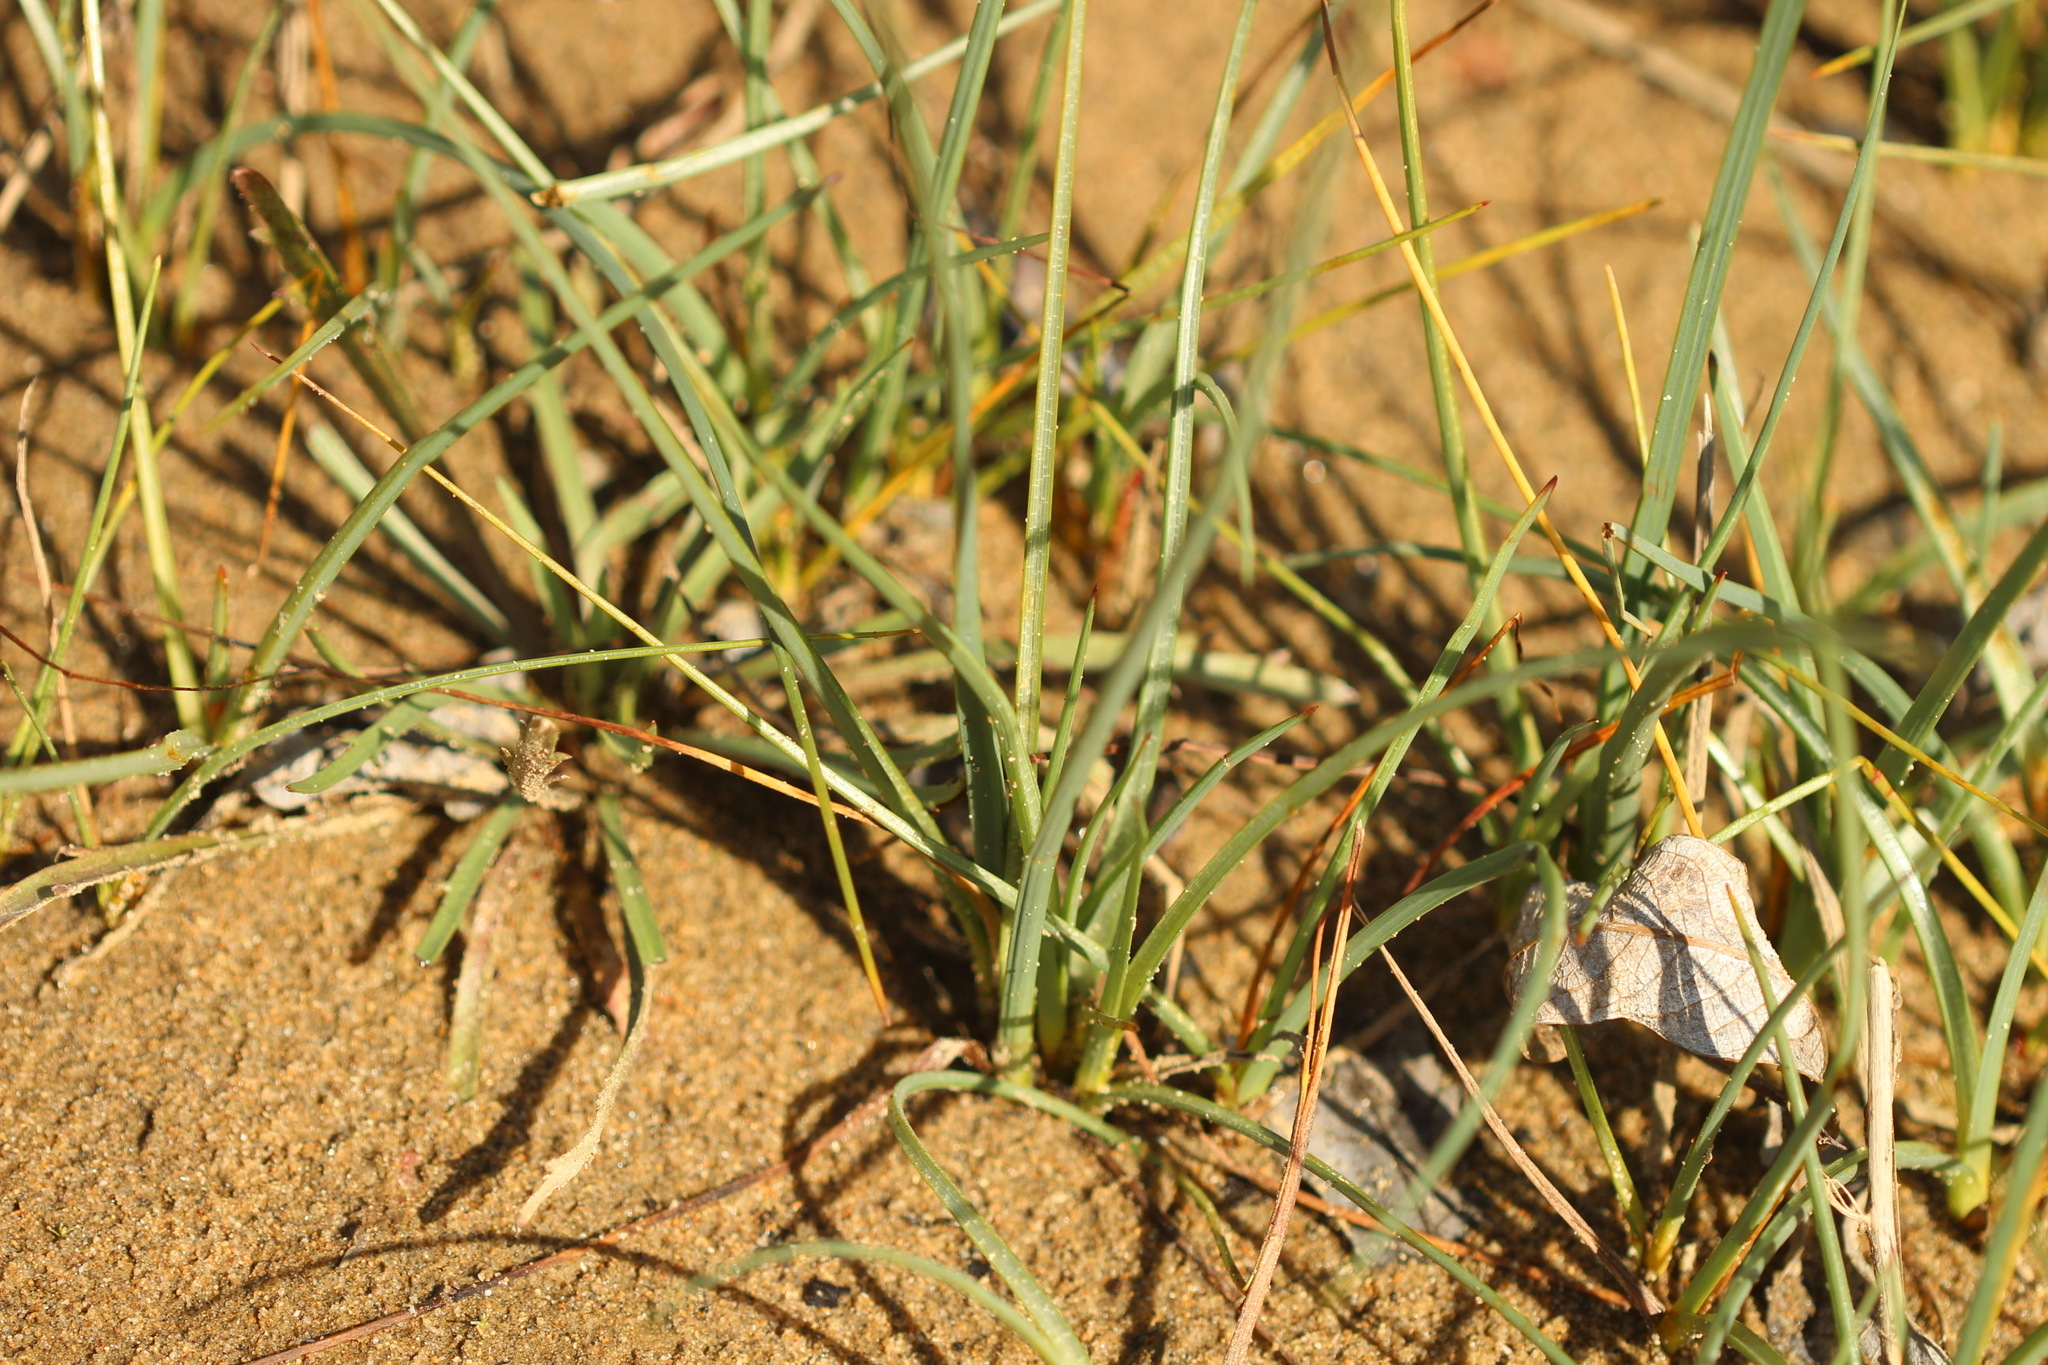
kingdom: Plantae
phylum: Tracheophyta
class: Liliopsida
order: Poales
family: Cyperaceae
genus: Schoenoplectus
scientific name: Schoenoplectus pungens
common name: Sharp club-rush
